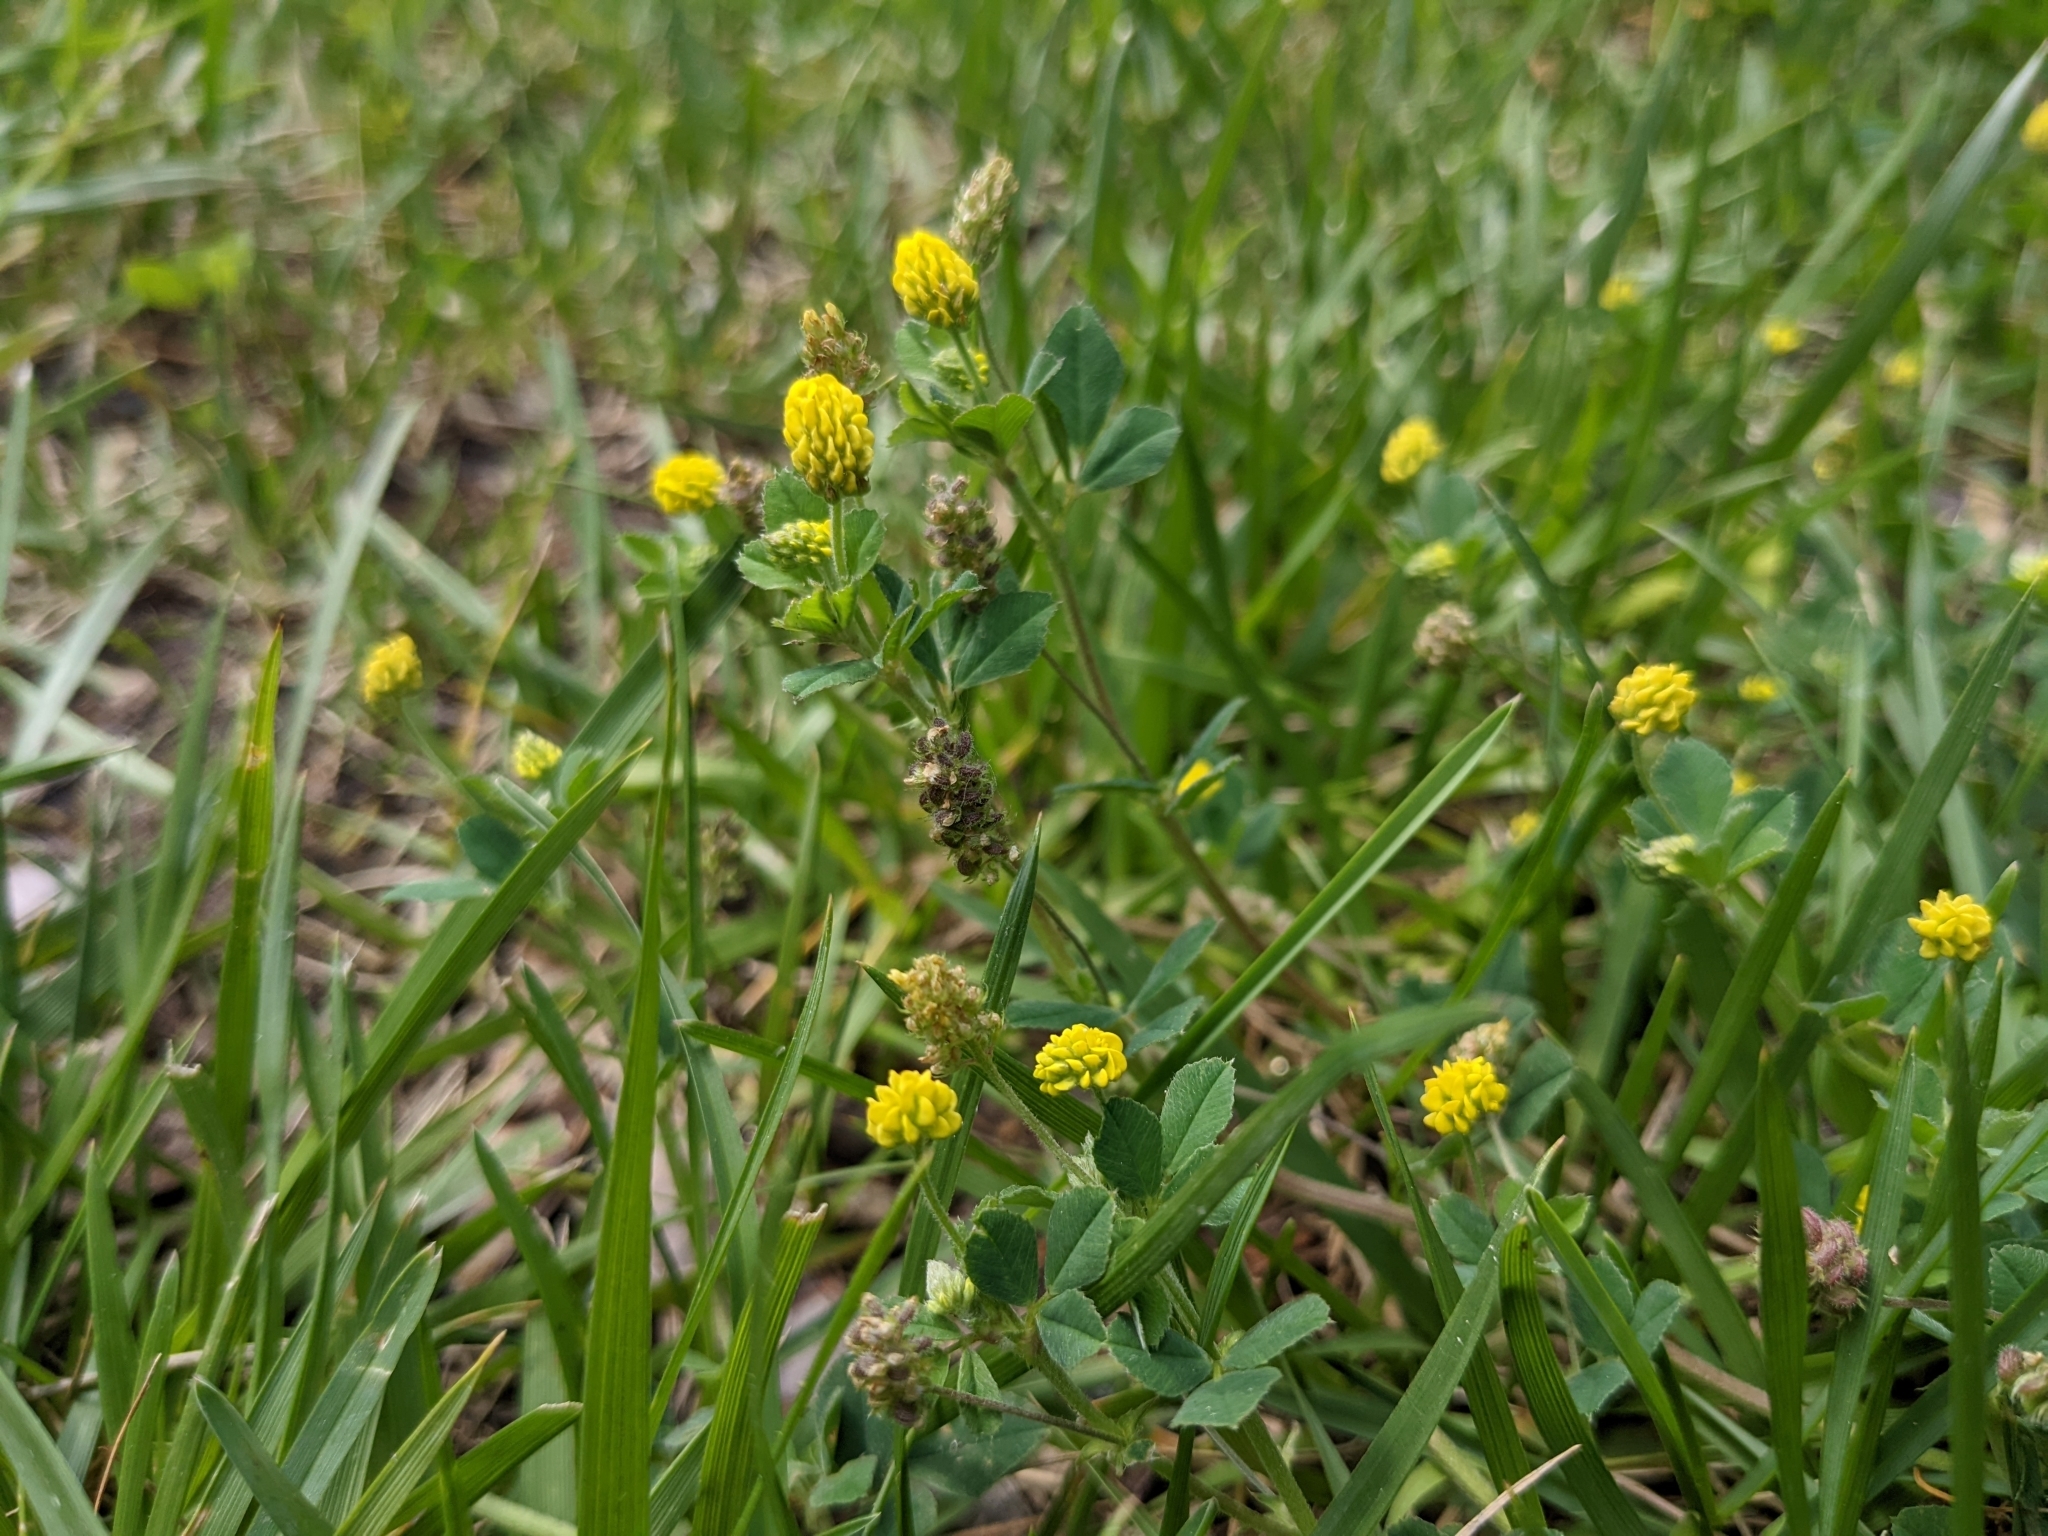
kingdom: Plantae
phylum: Tracheophyta
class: Magnoliopsida
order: Fabales
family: Fabaceae
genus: Medicago
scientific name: Medicago lupulina
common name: Black medick
